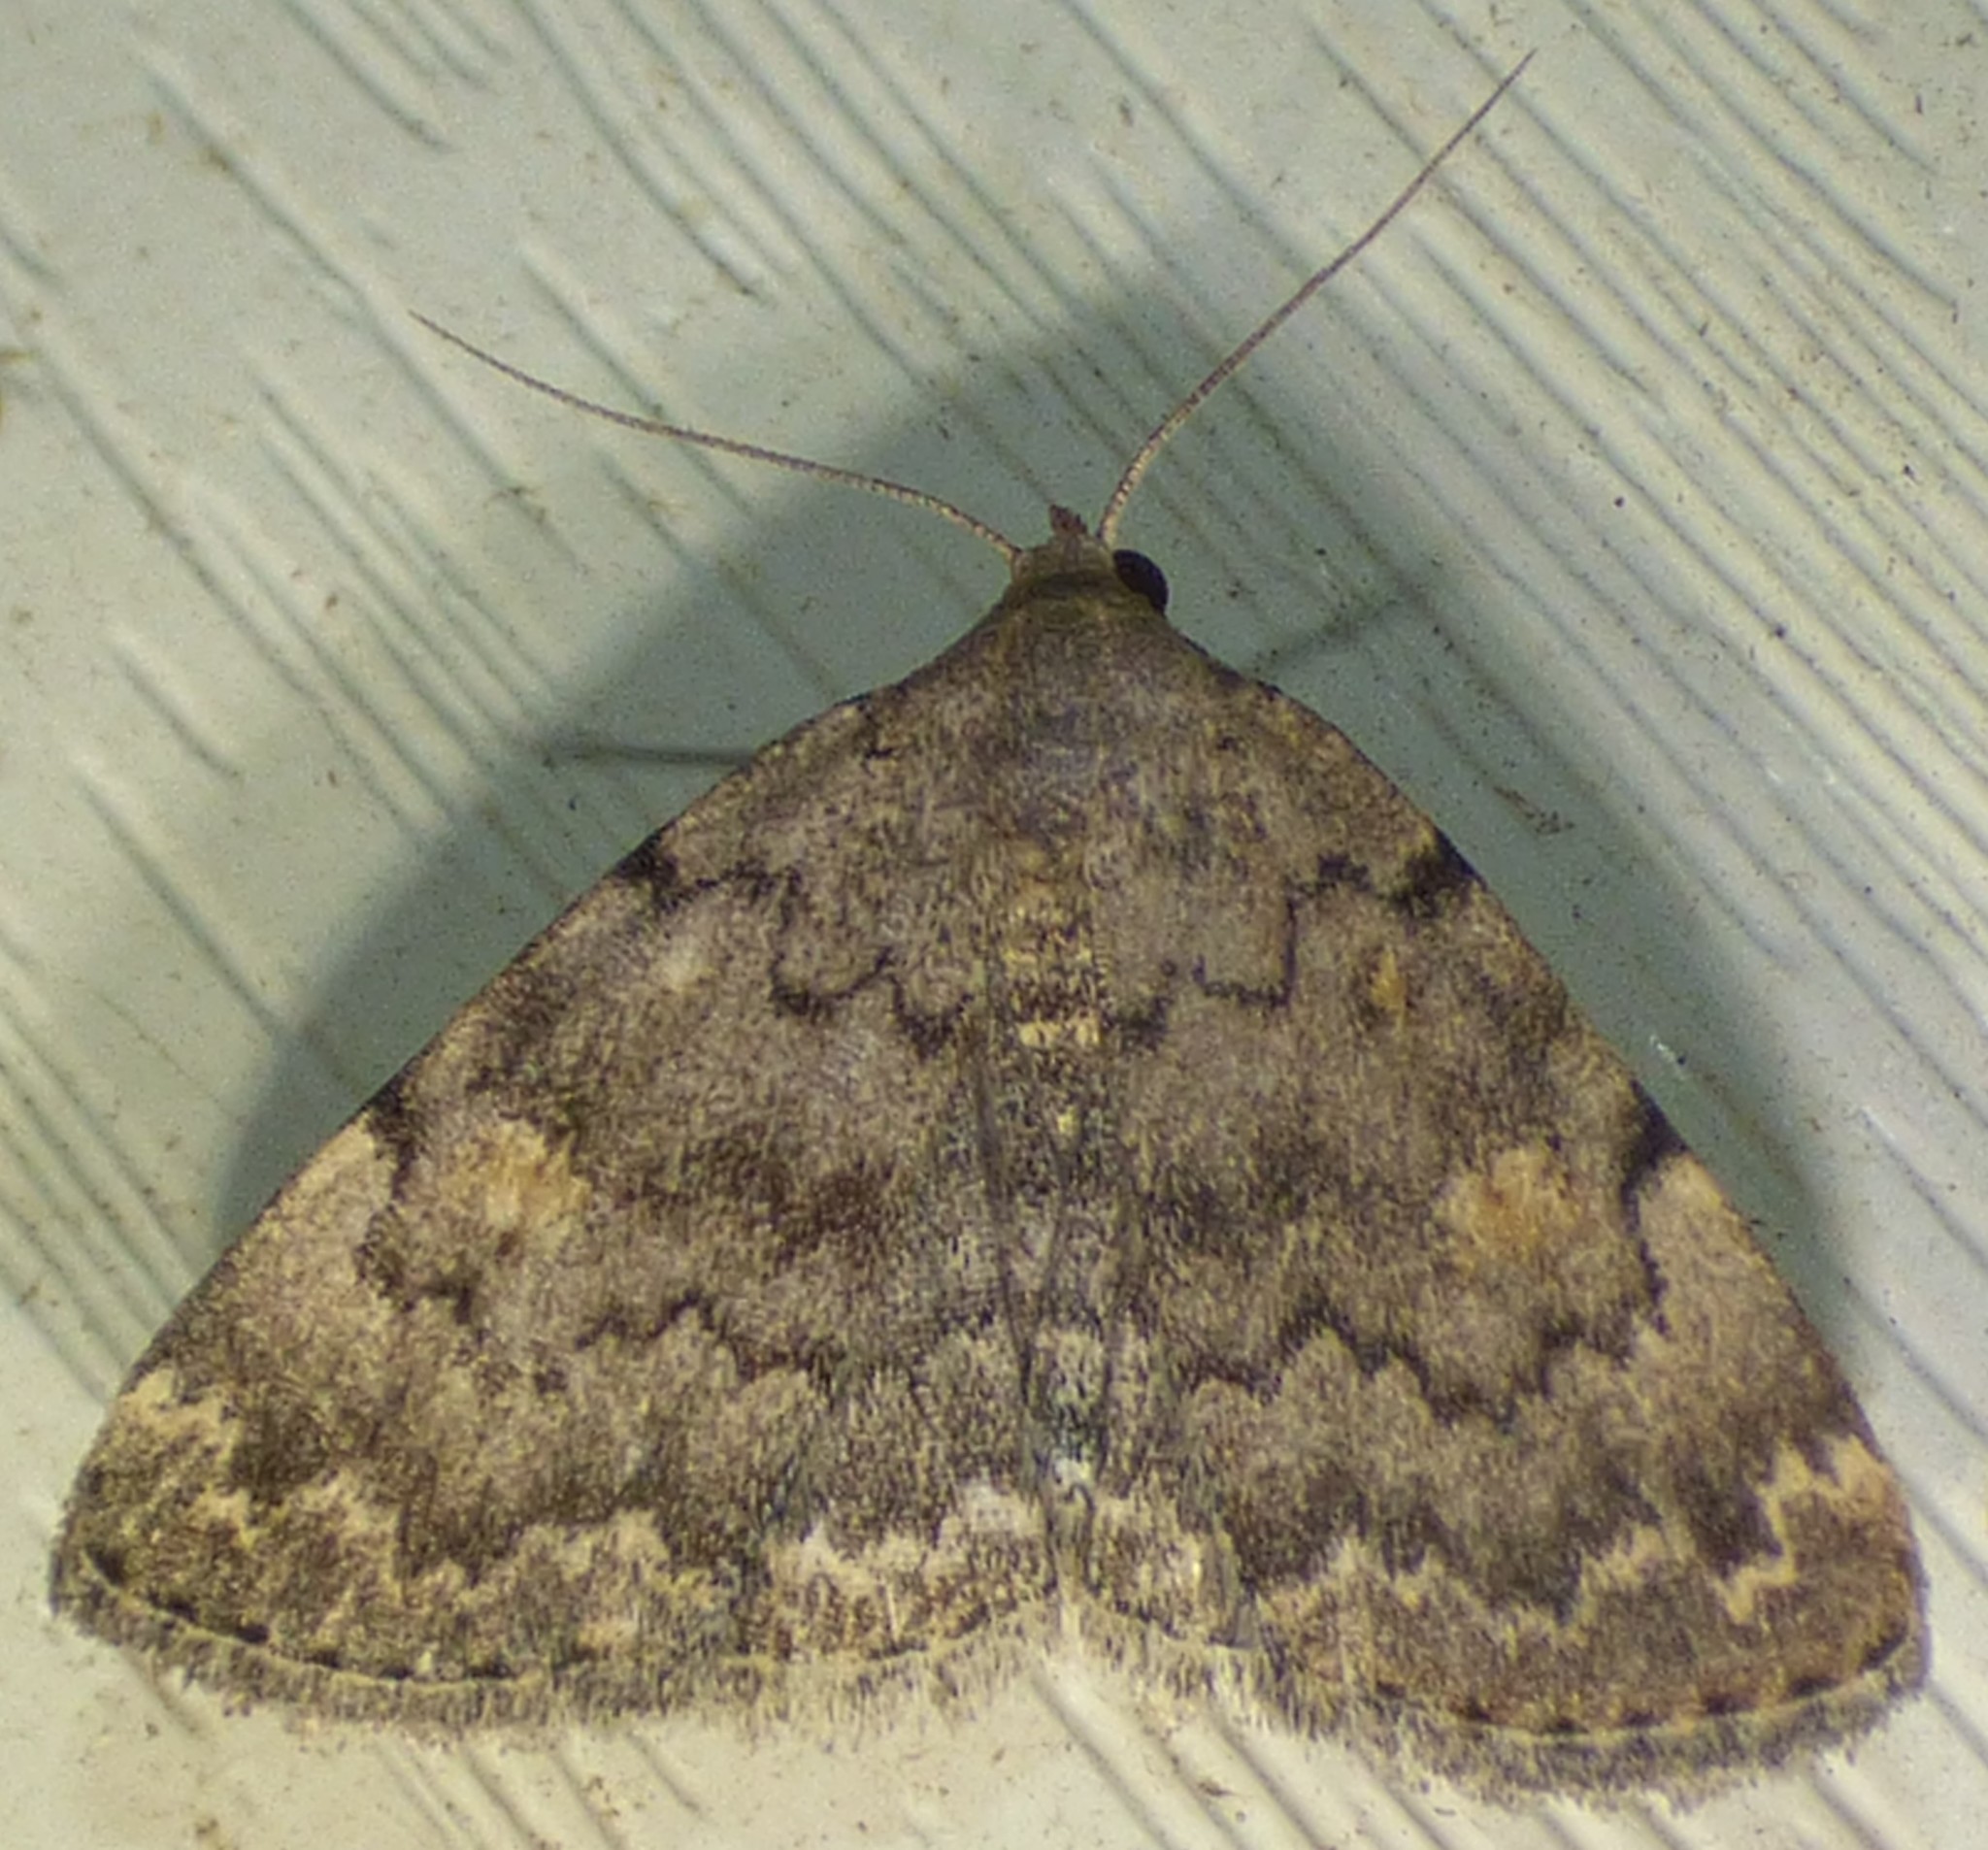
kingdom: Animalia
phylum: Arthropoda
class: Insecta
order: Lepidoptera
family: Erebidae
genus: Idia
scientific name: Idia aemula
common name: Common idia moth
